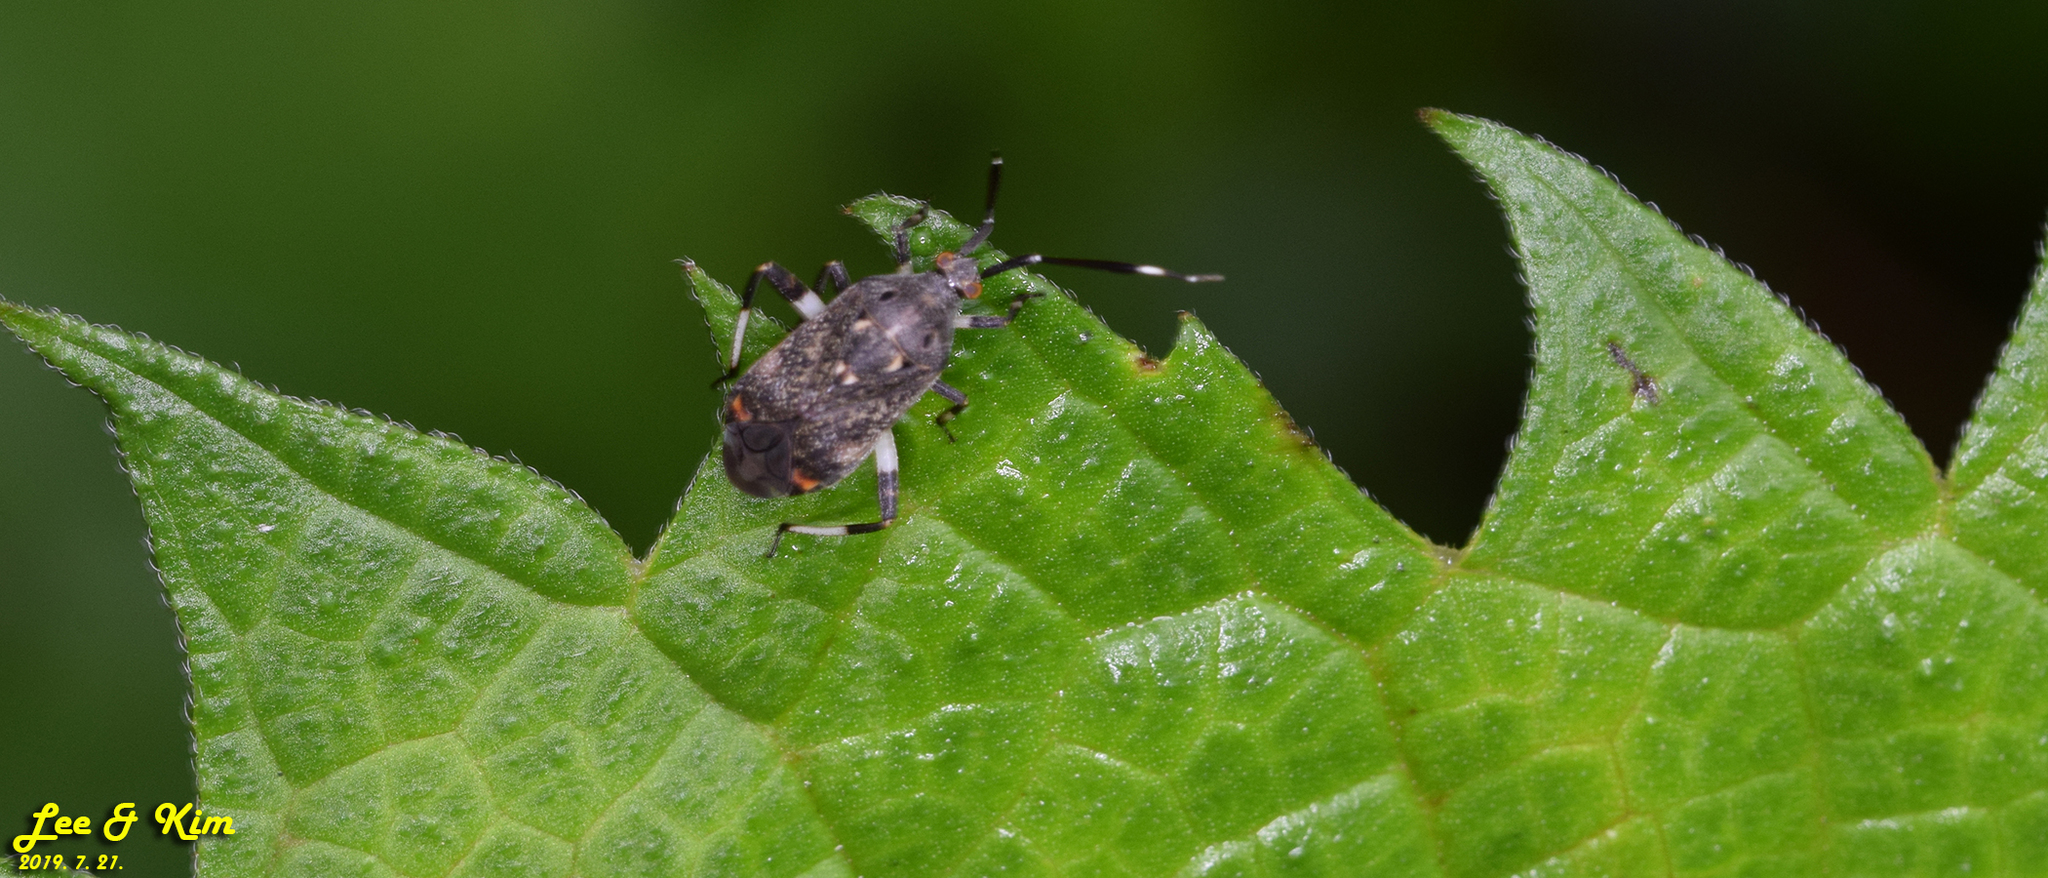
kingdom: Animalia
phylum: Arthropoda
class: Insecta
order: Hemiptera
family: Miridae
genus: Eurystylus
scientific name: Eurystylus coelestialium
